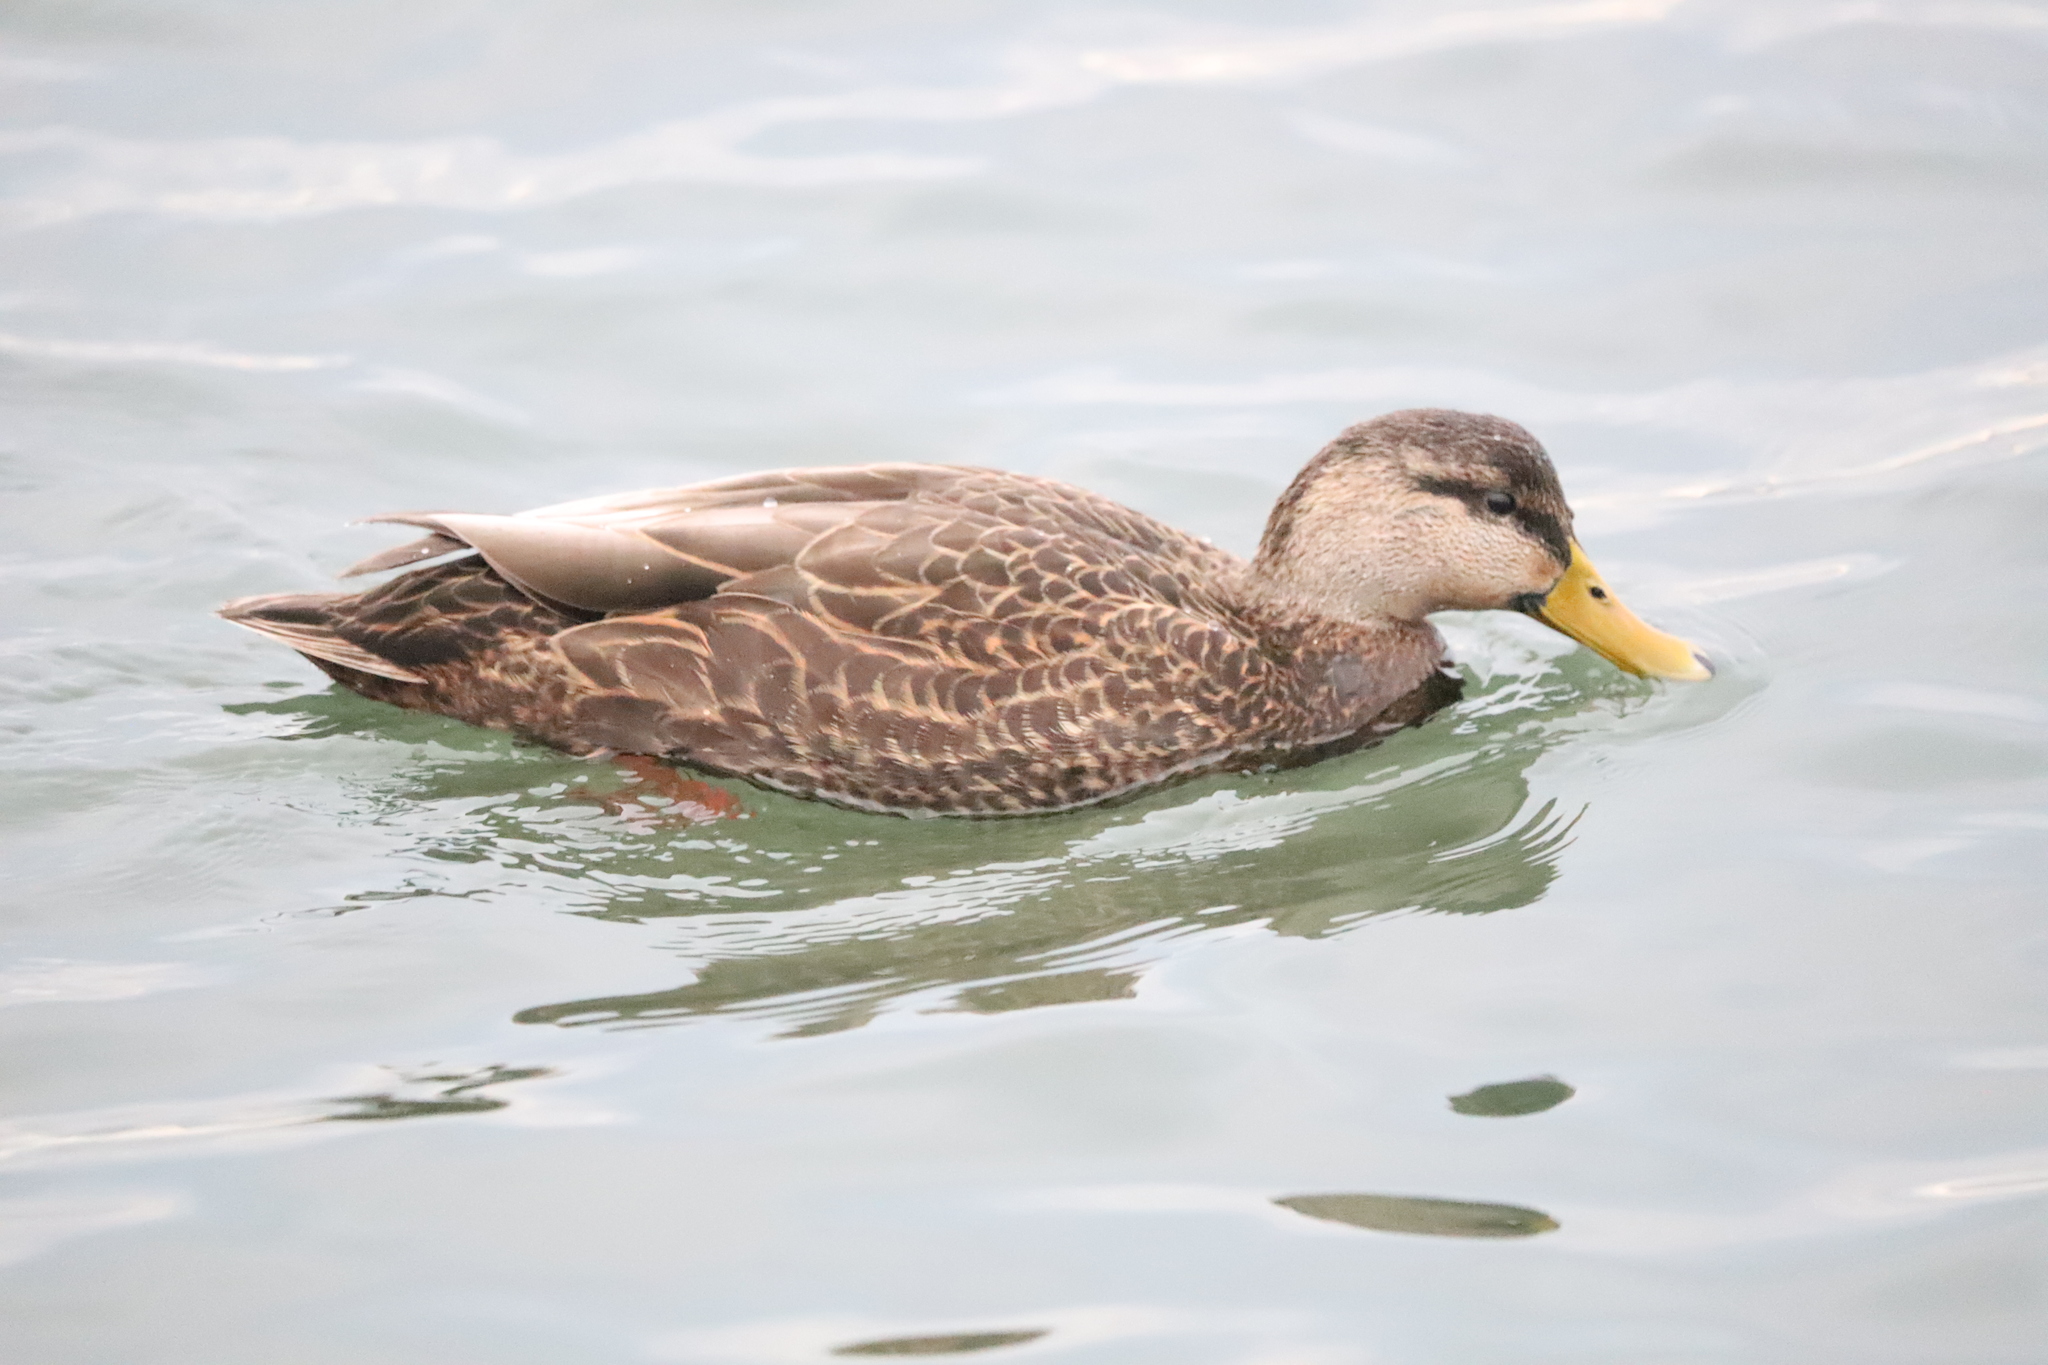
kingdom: Animalia
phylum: Chordata
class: Aves
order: Anseriformes
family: Anatidae
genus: Anas
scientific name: Anas rubripes
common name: American black duck
